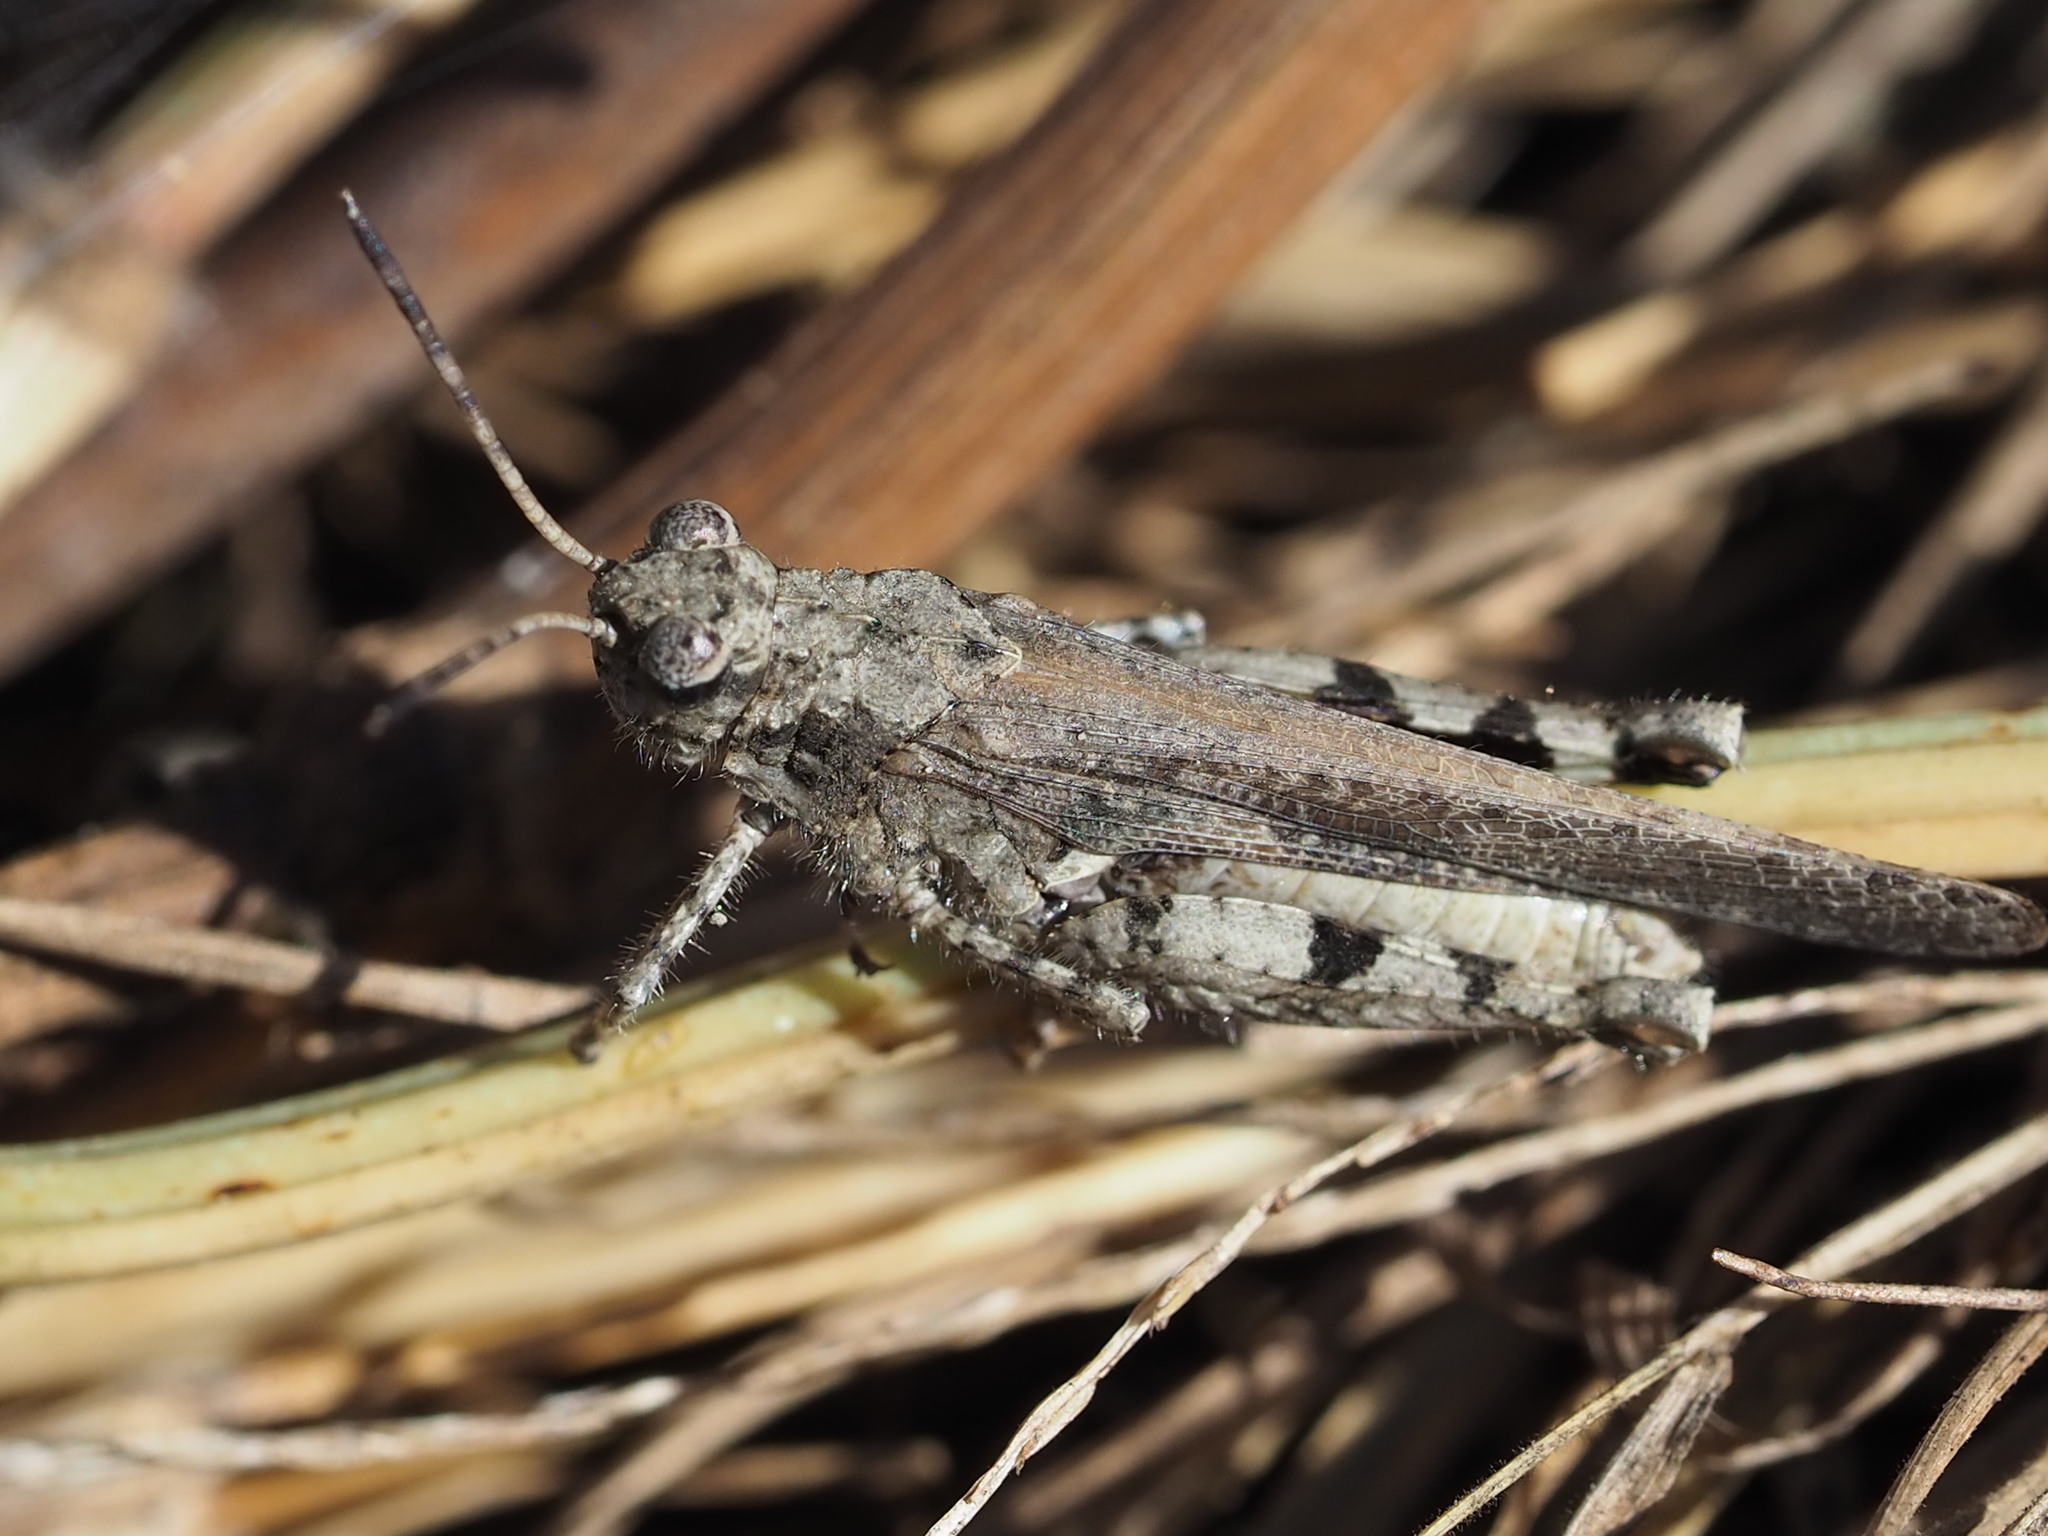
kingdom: Animalia
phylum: Arthropoda
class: Insecta
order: Orthoptera
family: Acrididae
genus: Trilophidia
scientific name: Trilophidia annulata
